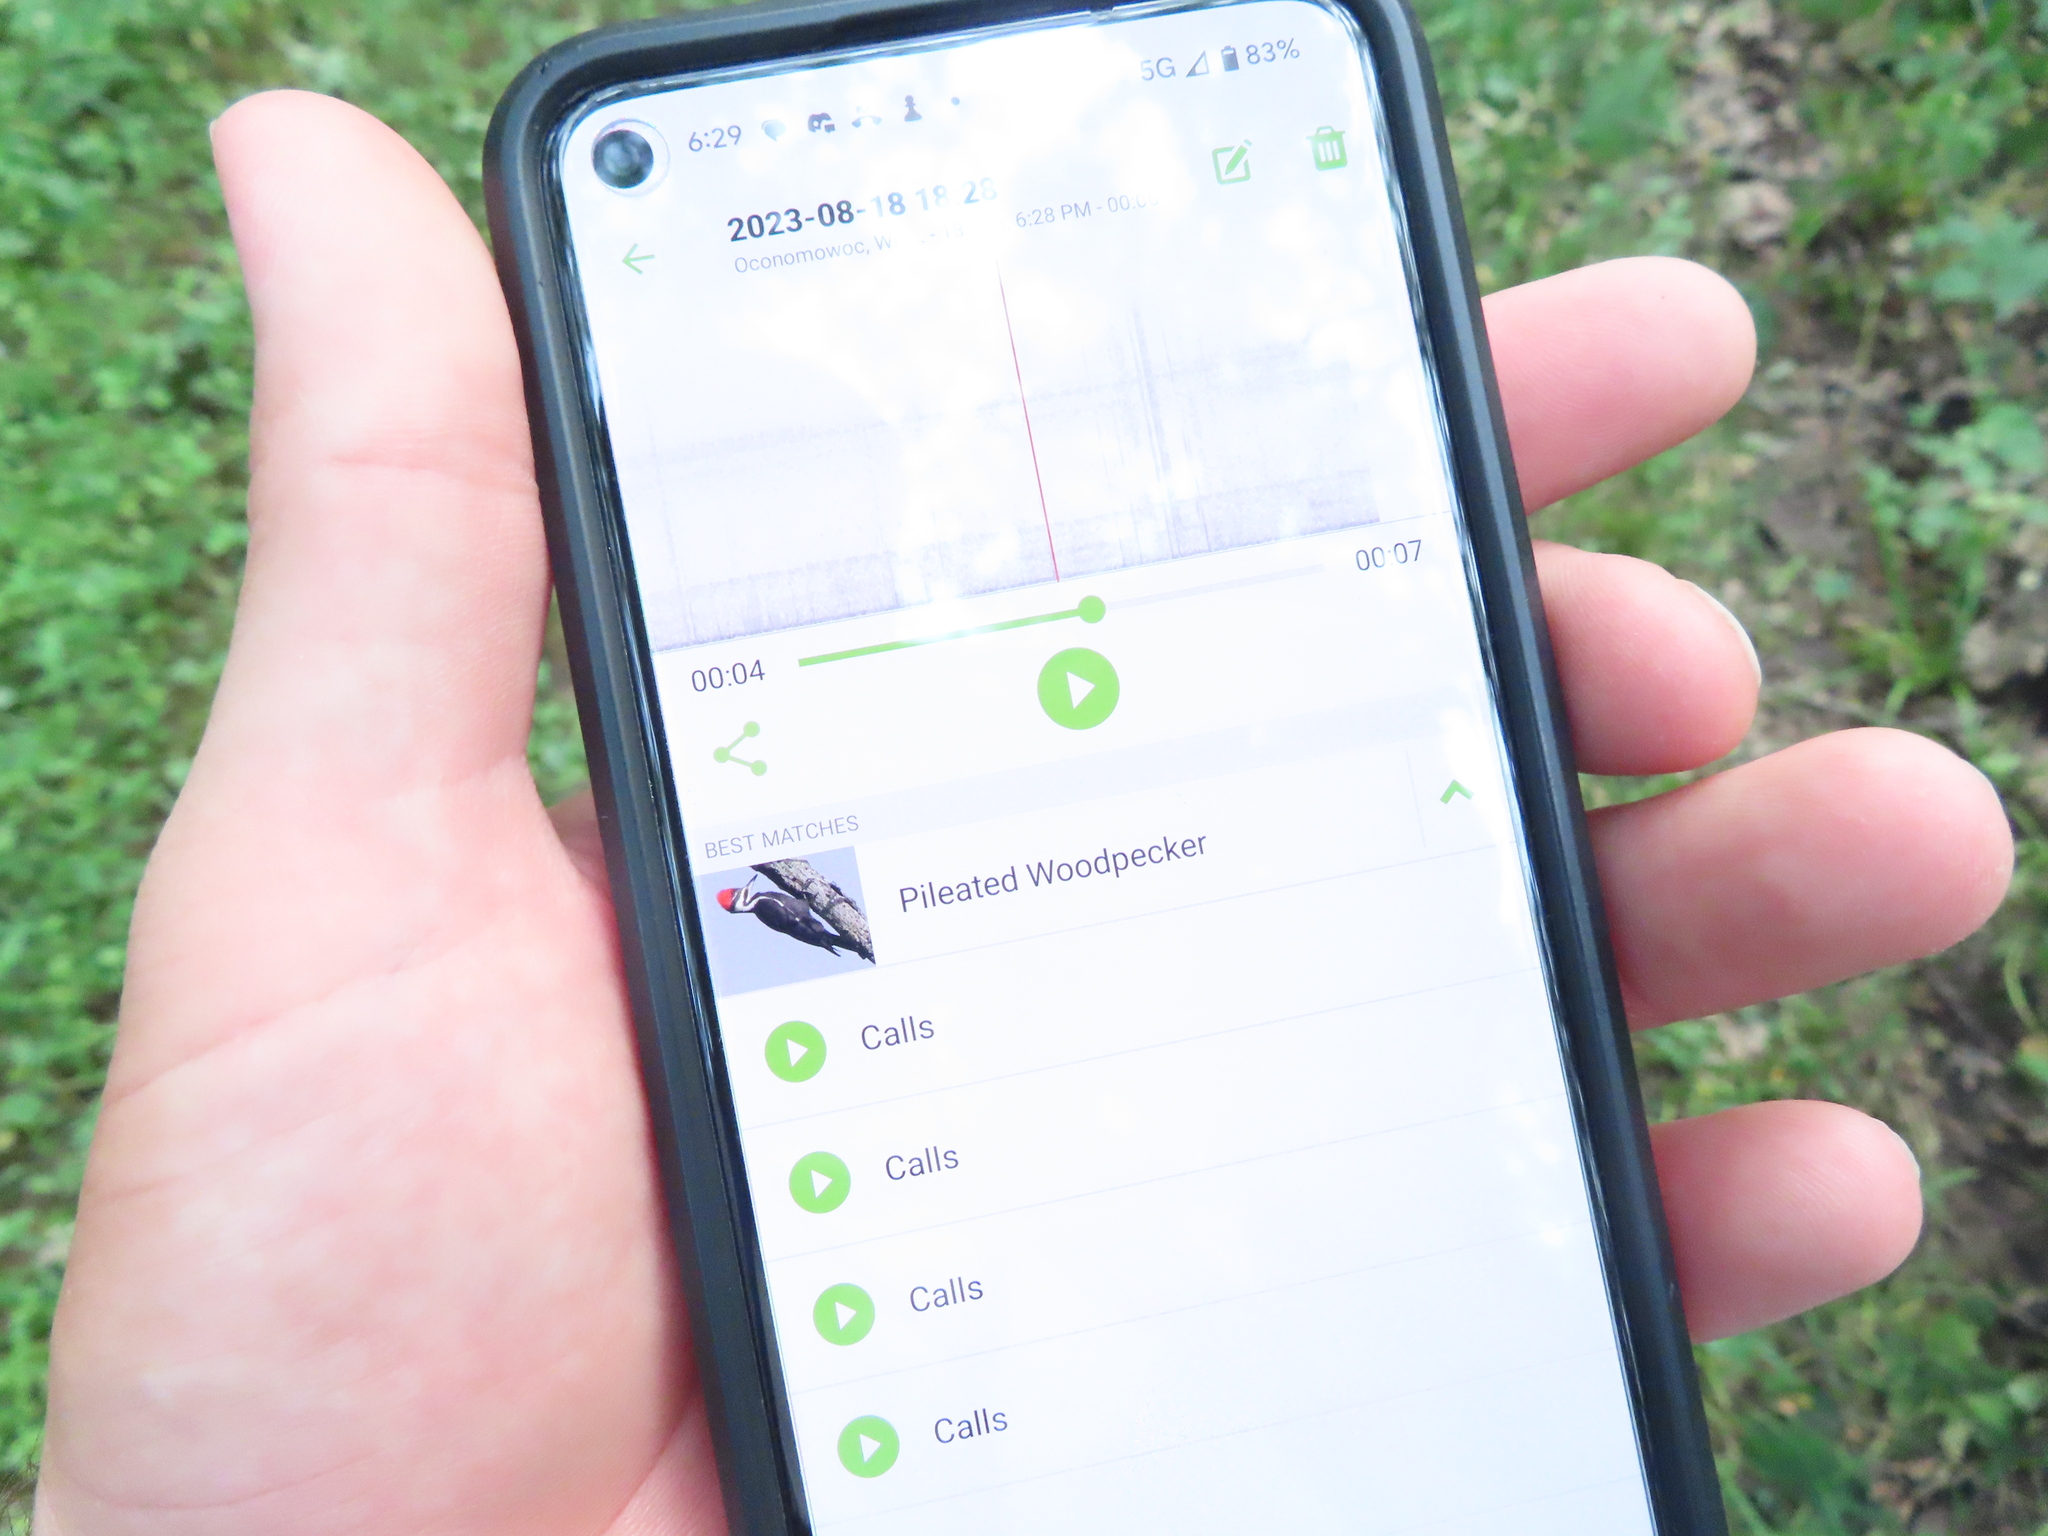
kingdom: Animalia
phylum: Chordata
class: Aves
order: Piciformes
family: Picidae
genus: Dryocopus
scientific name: Dryocopus pileatus
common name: Pileated woodpecker
